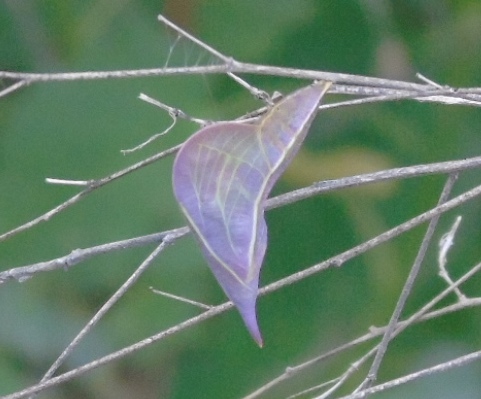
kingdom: Animalia
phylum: Arthropoda
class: Insecta
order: Lepidoptera
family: Pieridae
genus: Phoebis
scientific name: Phoebis
